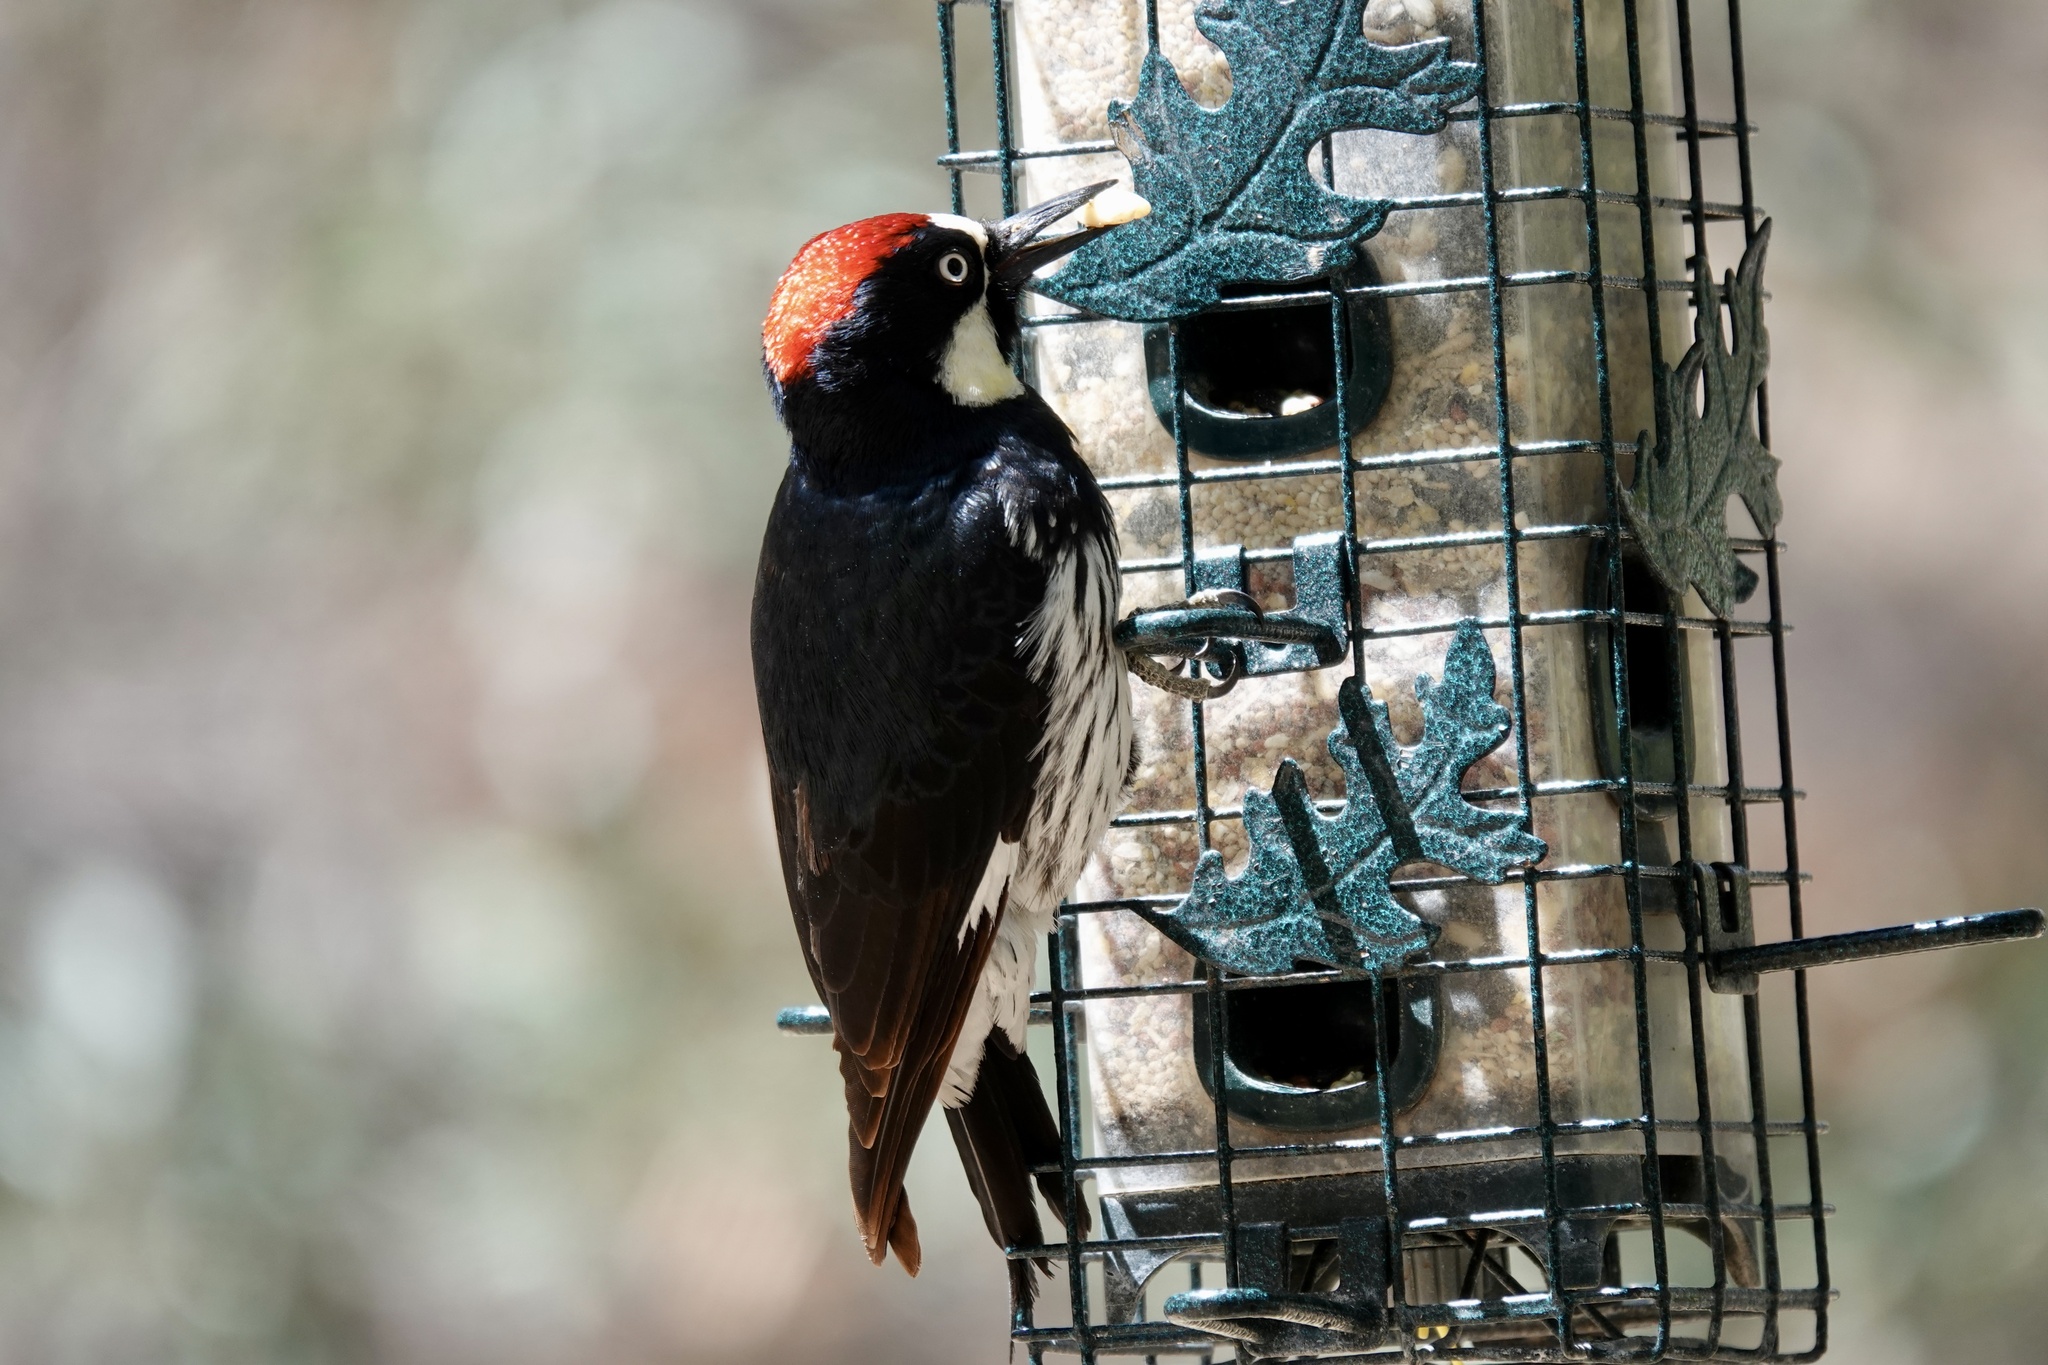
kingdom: Animalia
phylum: Chordata
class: Aves
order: Piciformes
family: Picidae
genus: Melanerpes
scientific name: Melanerpes formicivorus
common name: Acorn woodpecker
